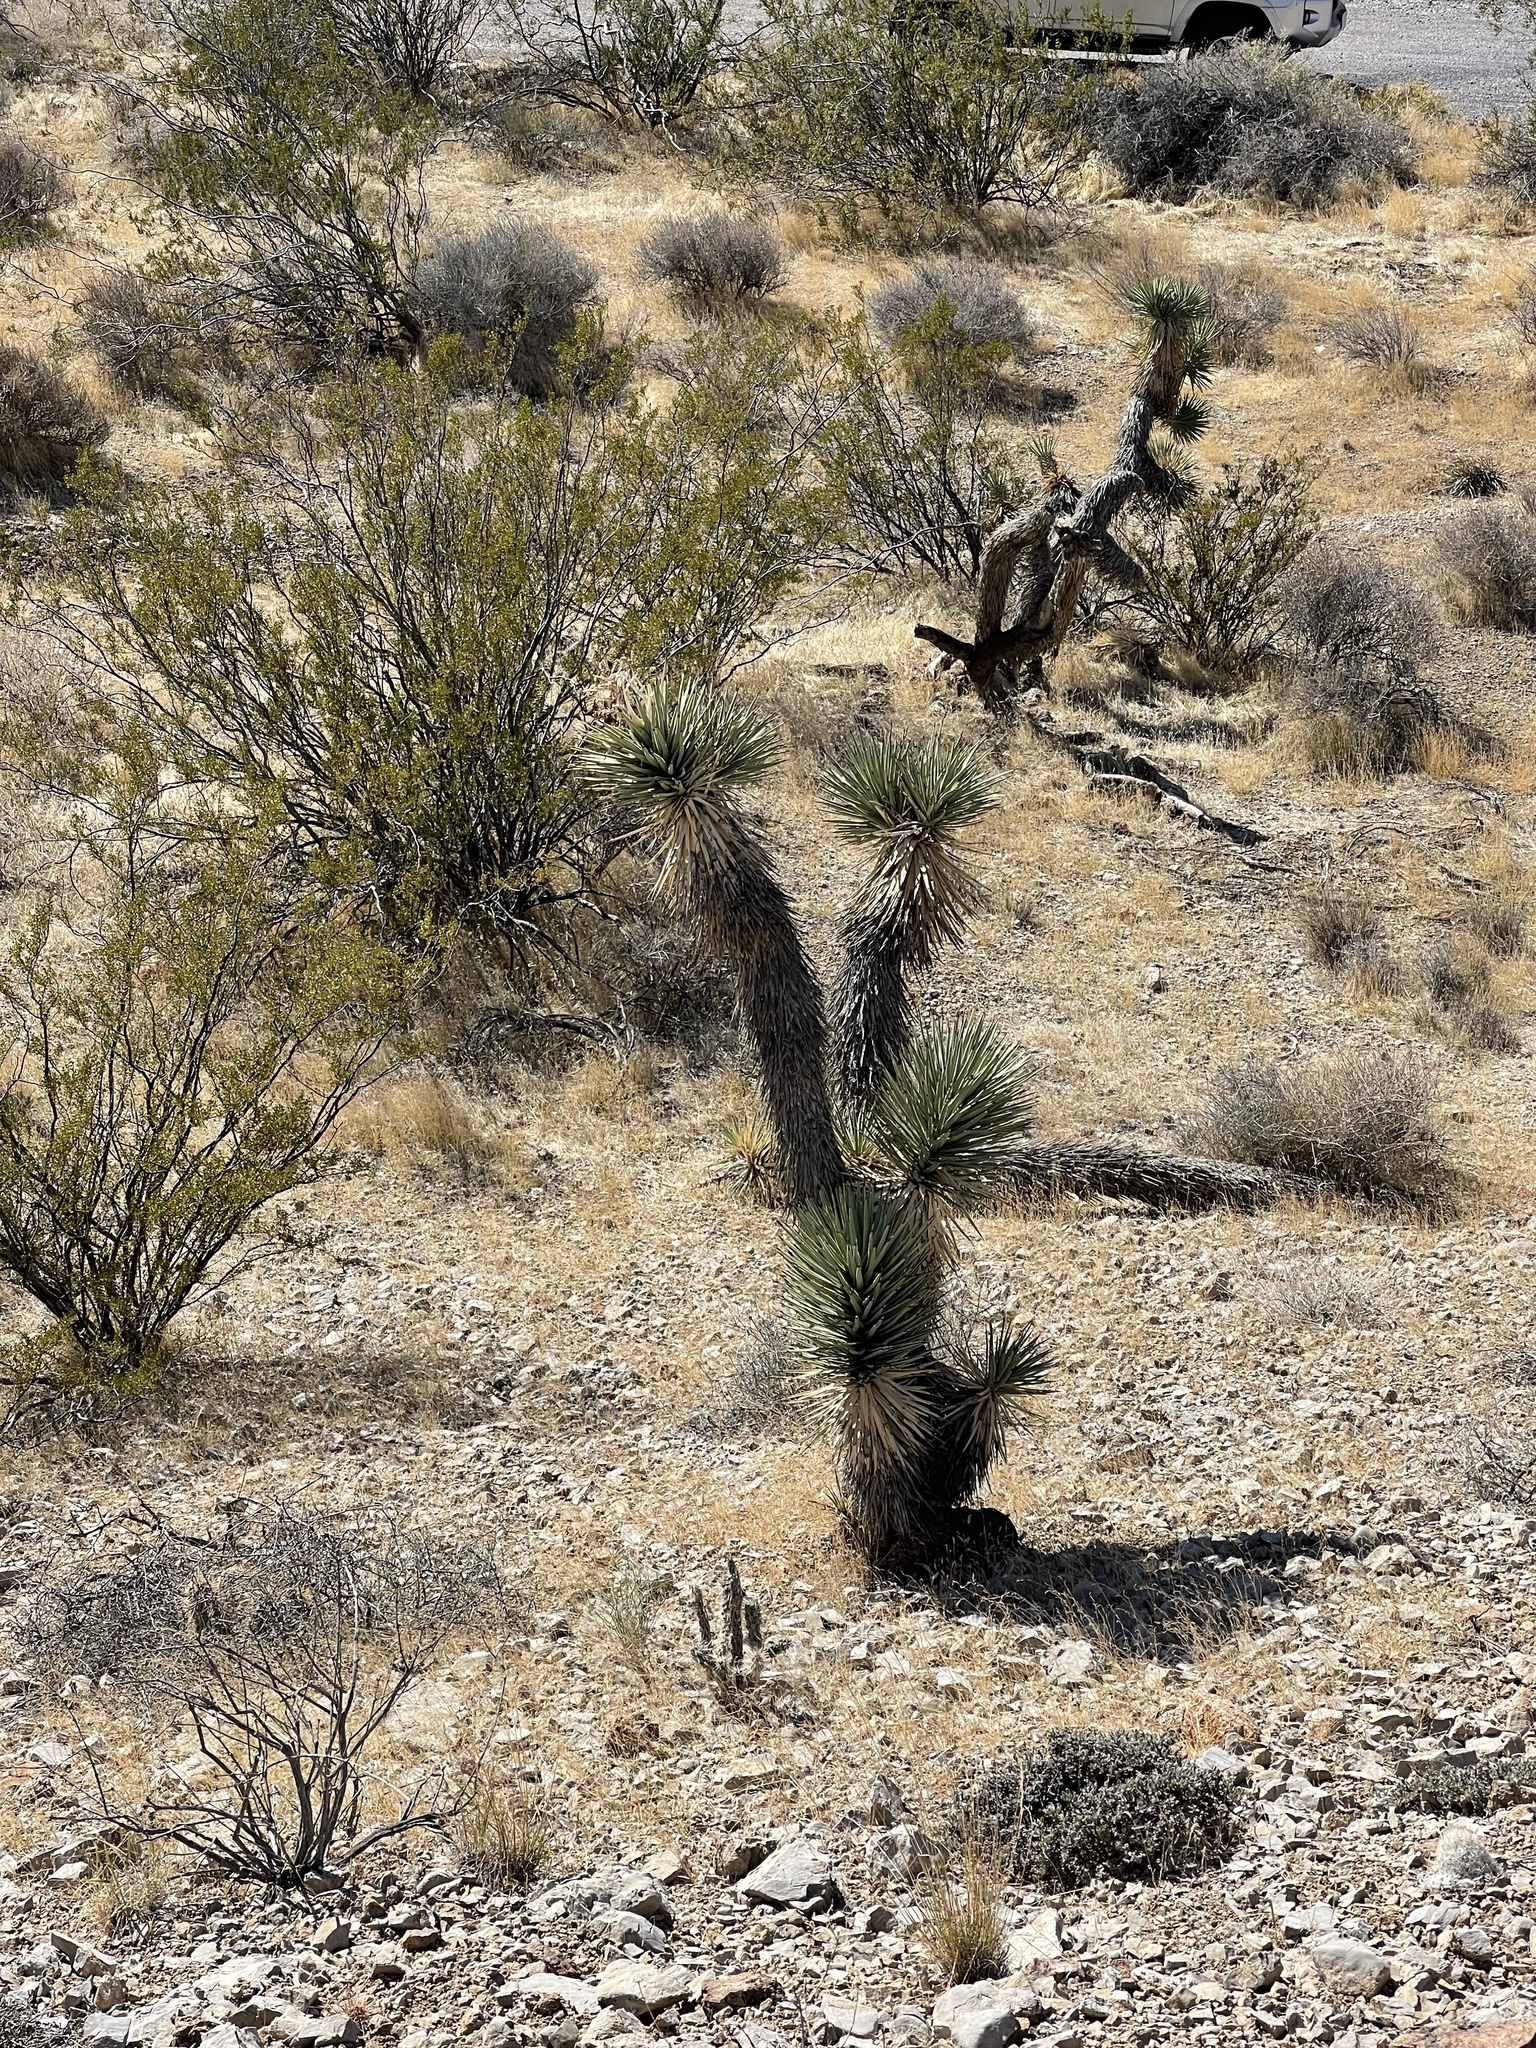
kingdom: Plantae
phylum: Tracheophyta
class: Liliopsida
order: Asparagales
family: Asparagaceae
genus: Yucca
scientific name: Yucca brevifolia
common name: Joshua tree
